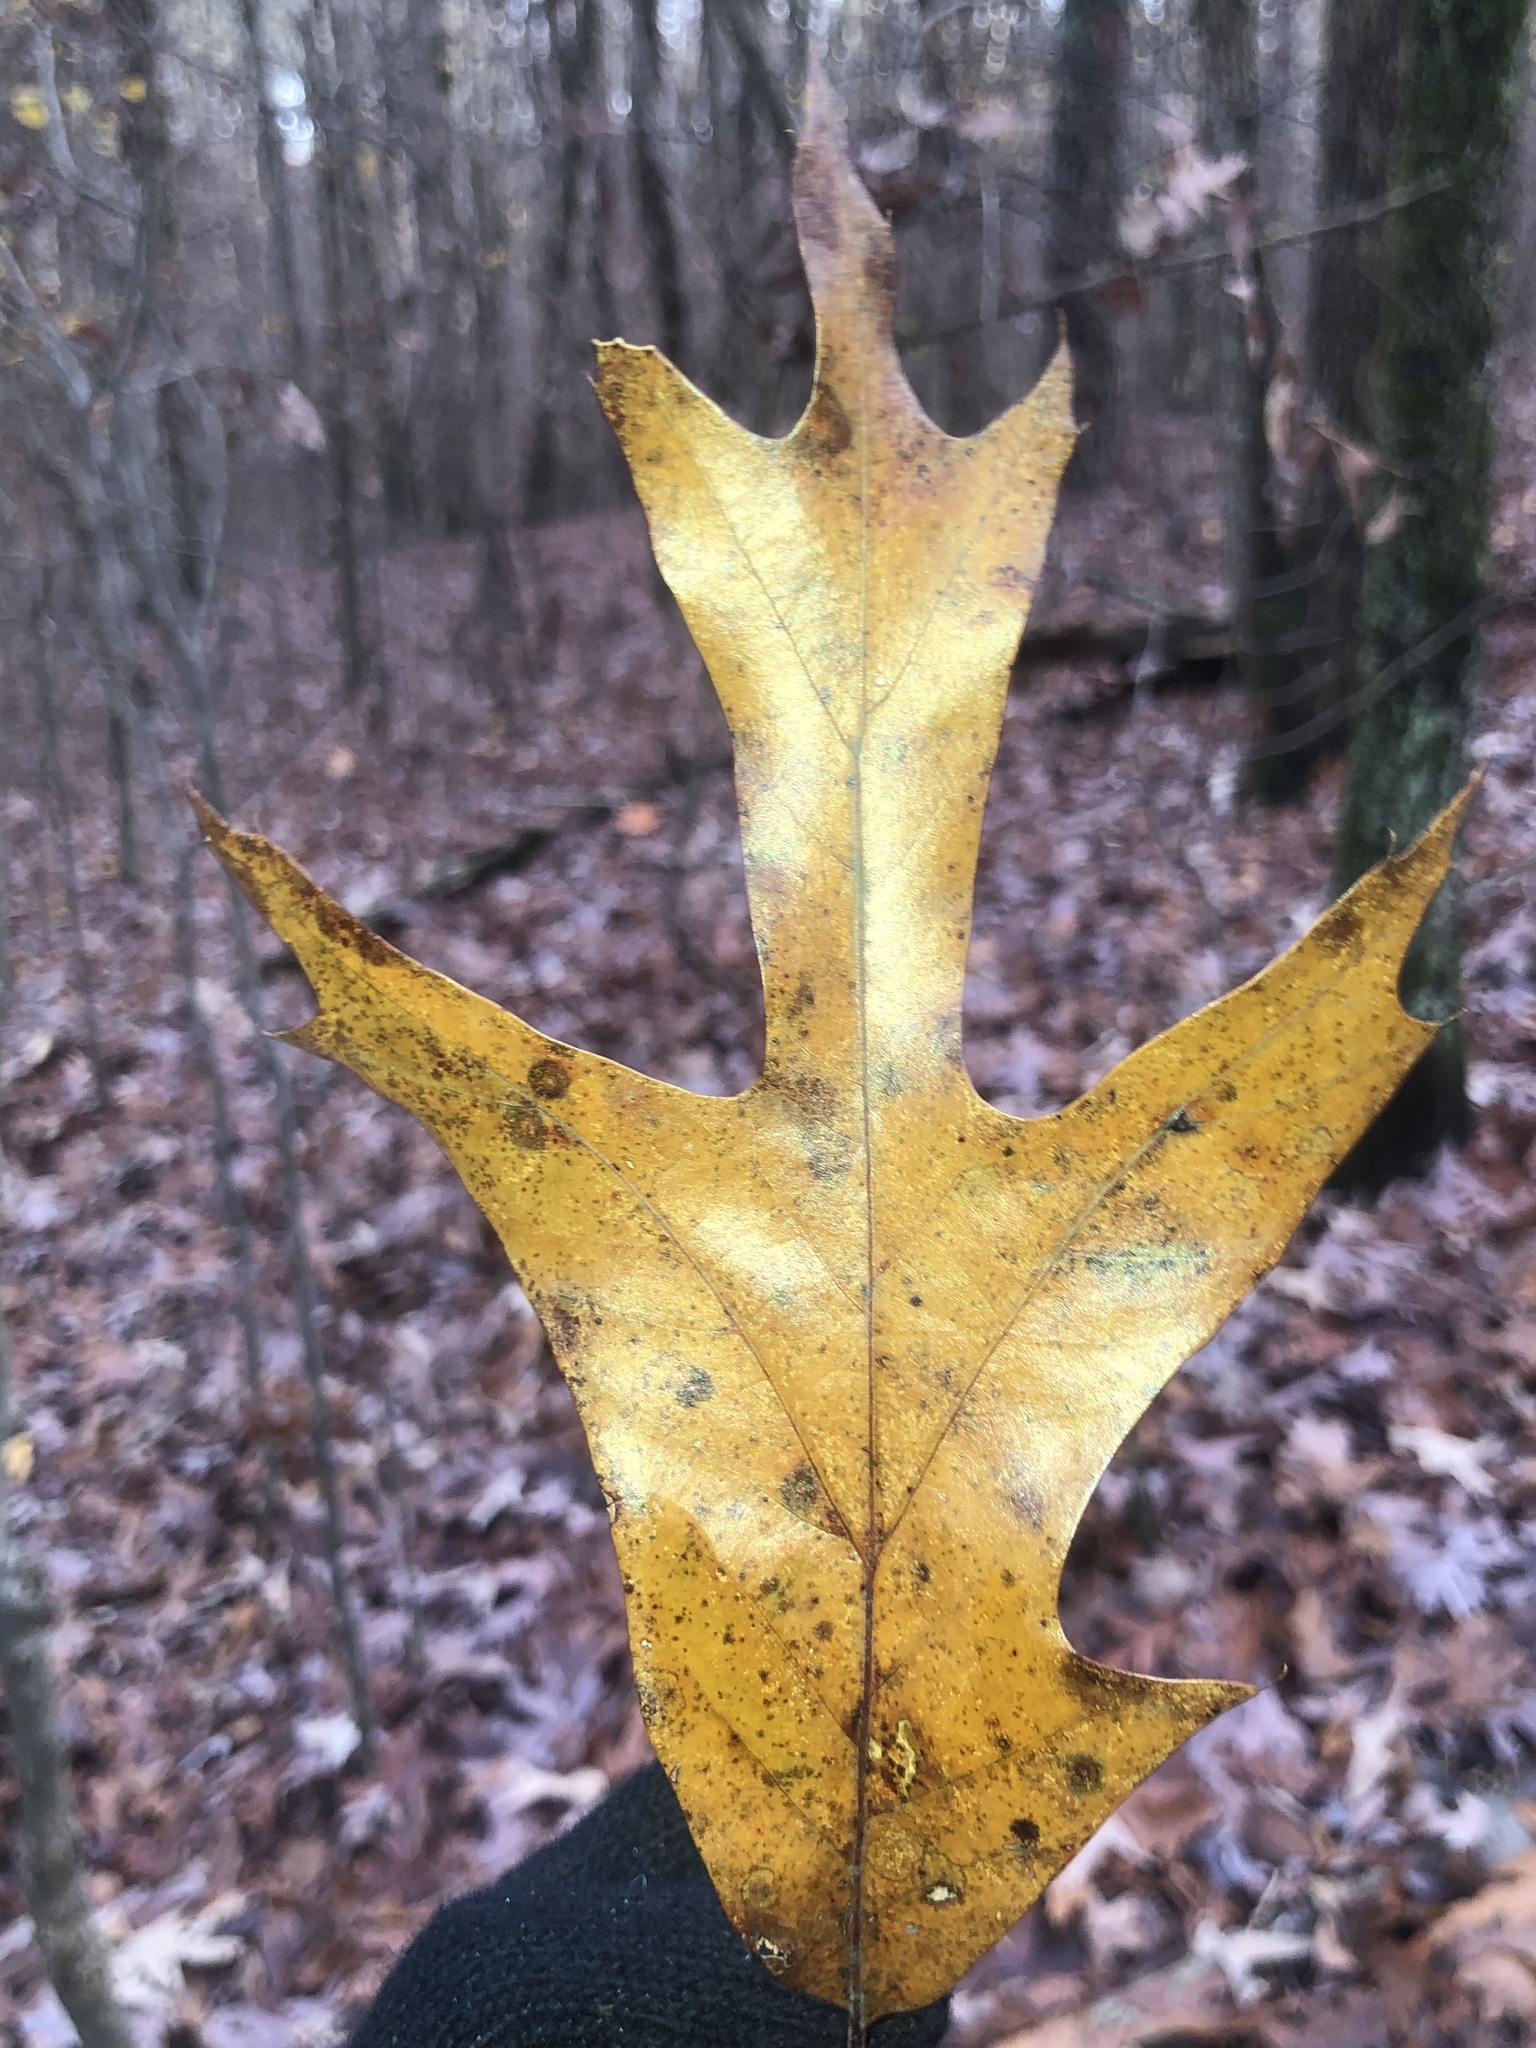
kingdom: Plantae
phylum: Tracheophyta
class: Magnoliopsida
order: Fagales
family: Fagaceae
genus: Quercus
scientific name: Quercus falcata
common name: Southern red oak
